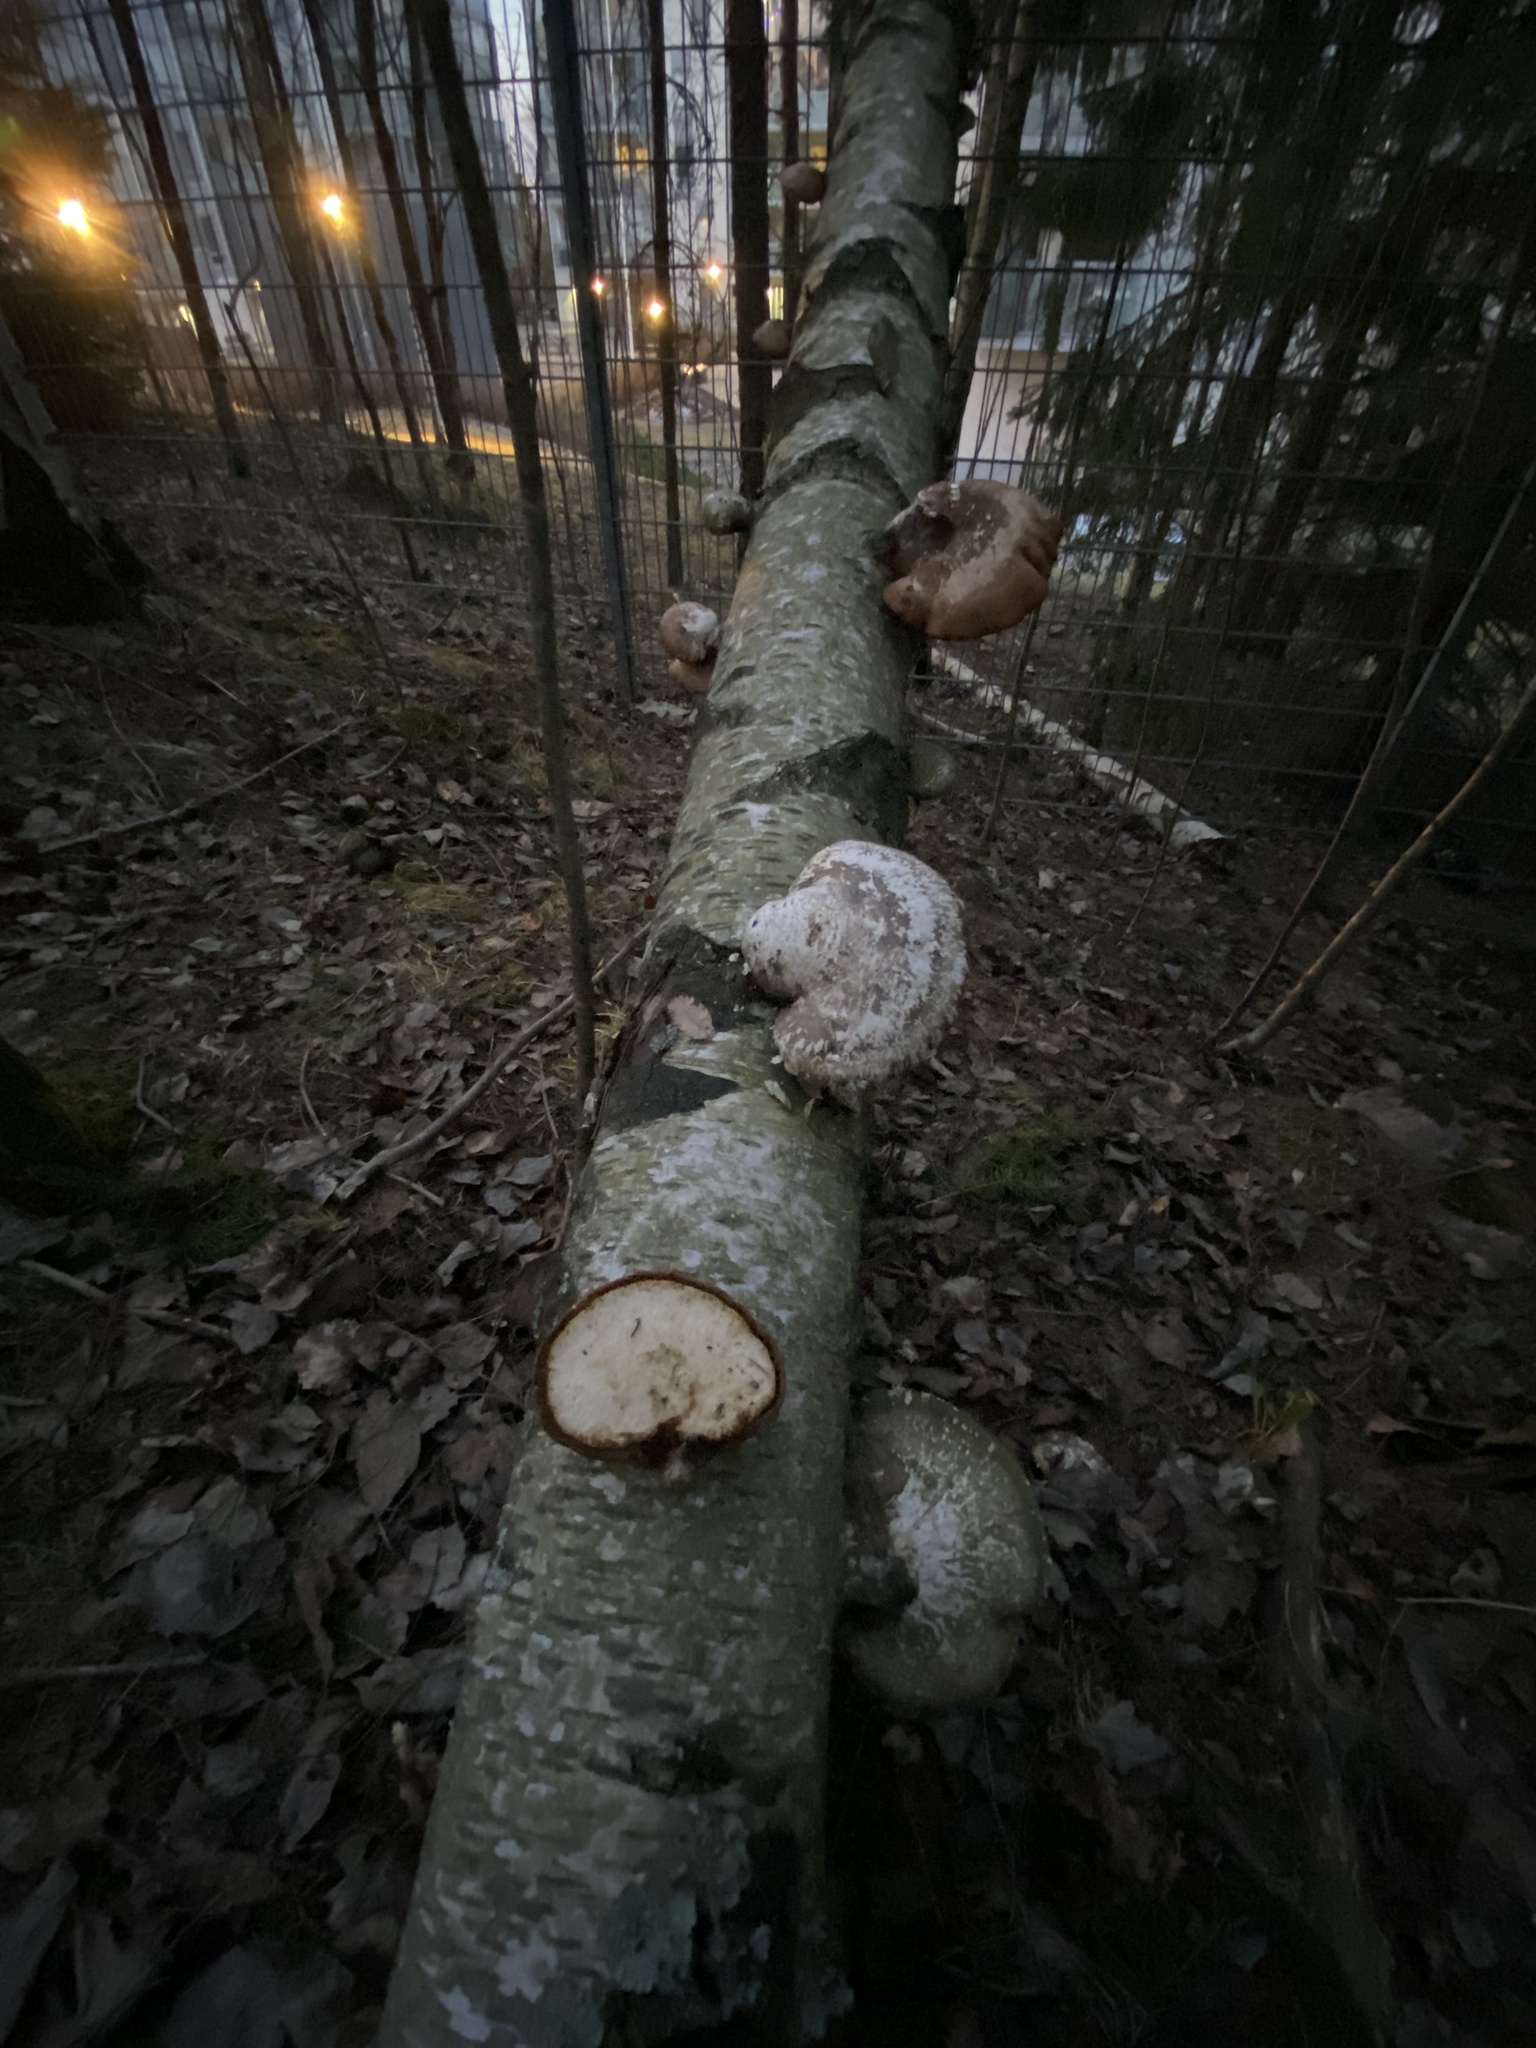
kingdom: Fungi
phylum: Basidiomycota
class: Agaricomycetes
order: Polyporales
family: Fomitopsidaceae
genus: Fomitopsis
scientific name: Fomitopsis betulina
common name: Birch polypore
